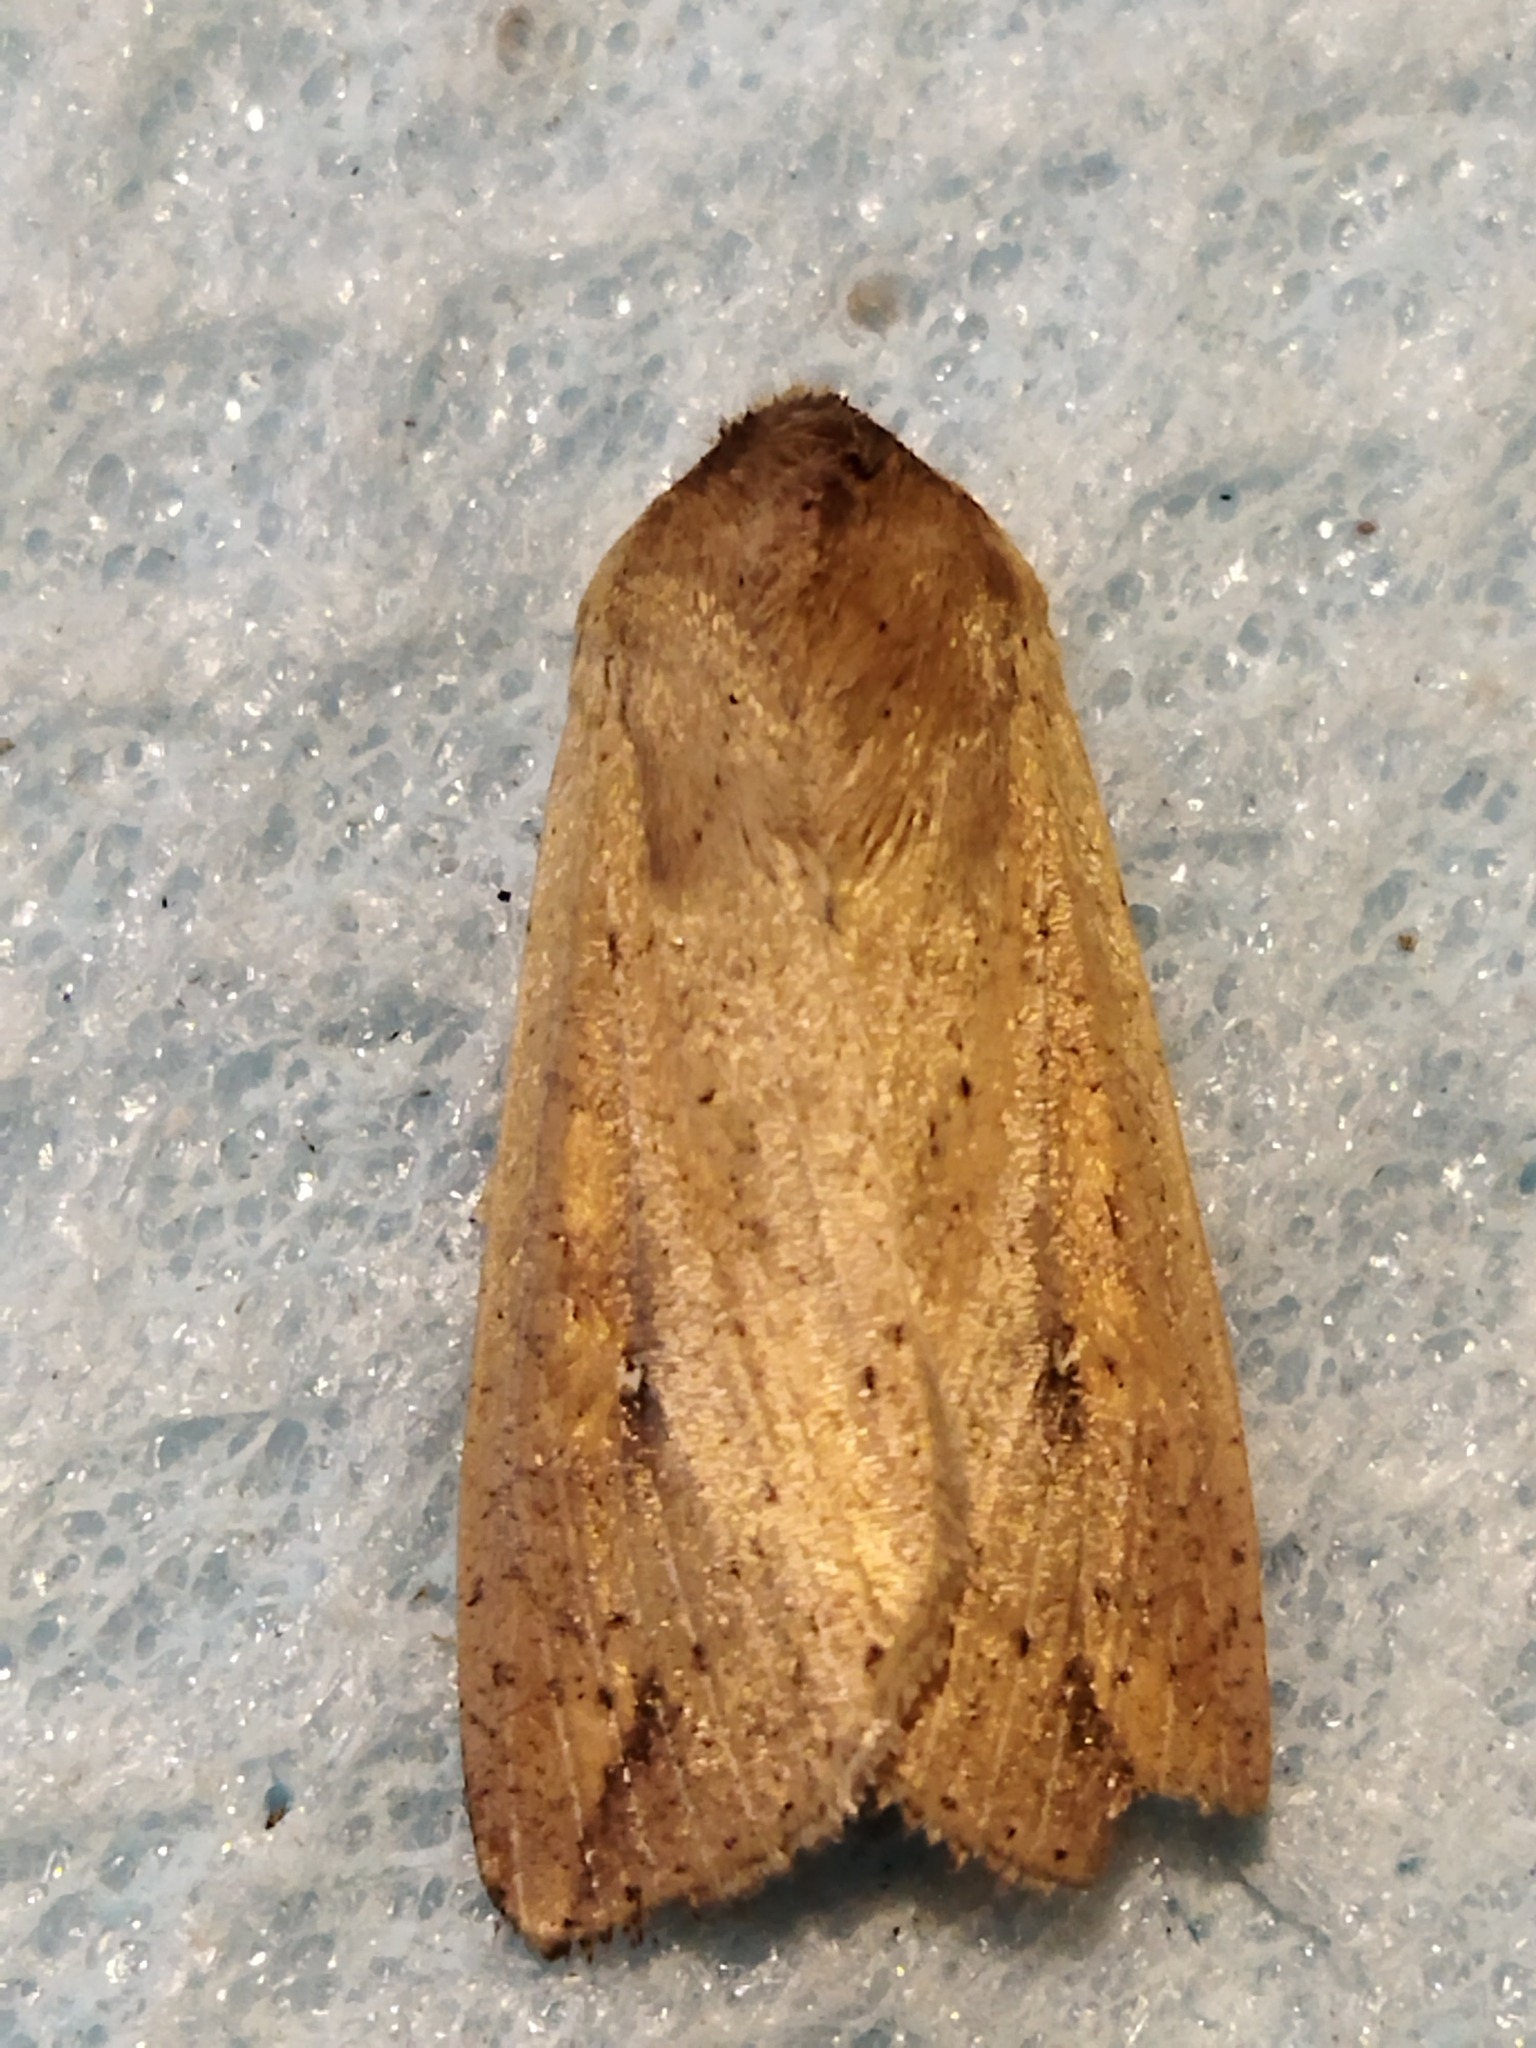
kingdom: Animalia
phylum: Arthropoda
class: Insecta
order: Lepidoptera
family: Noctuidae
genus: Mythimna
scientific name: Mythimna unipuncta
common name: White-speck
